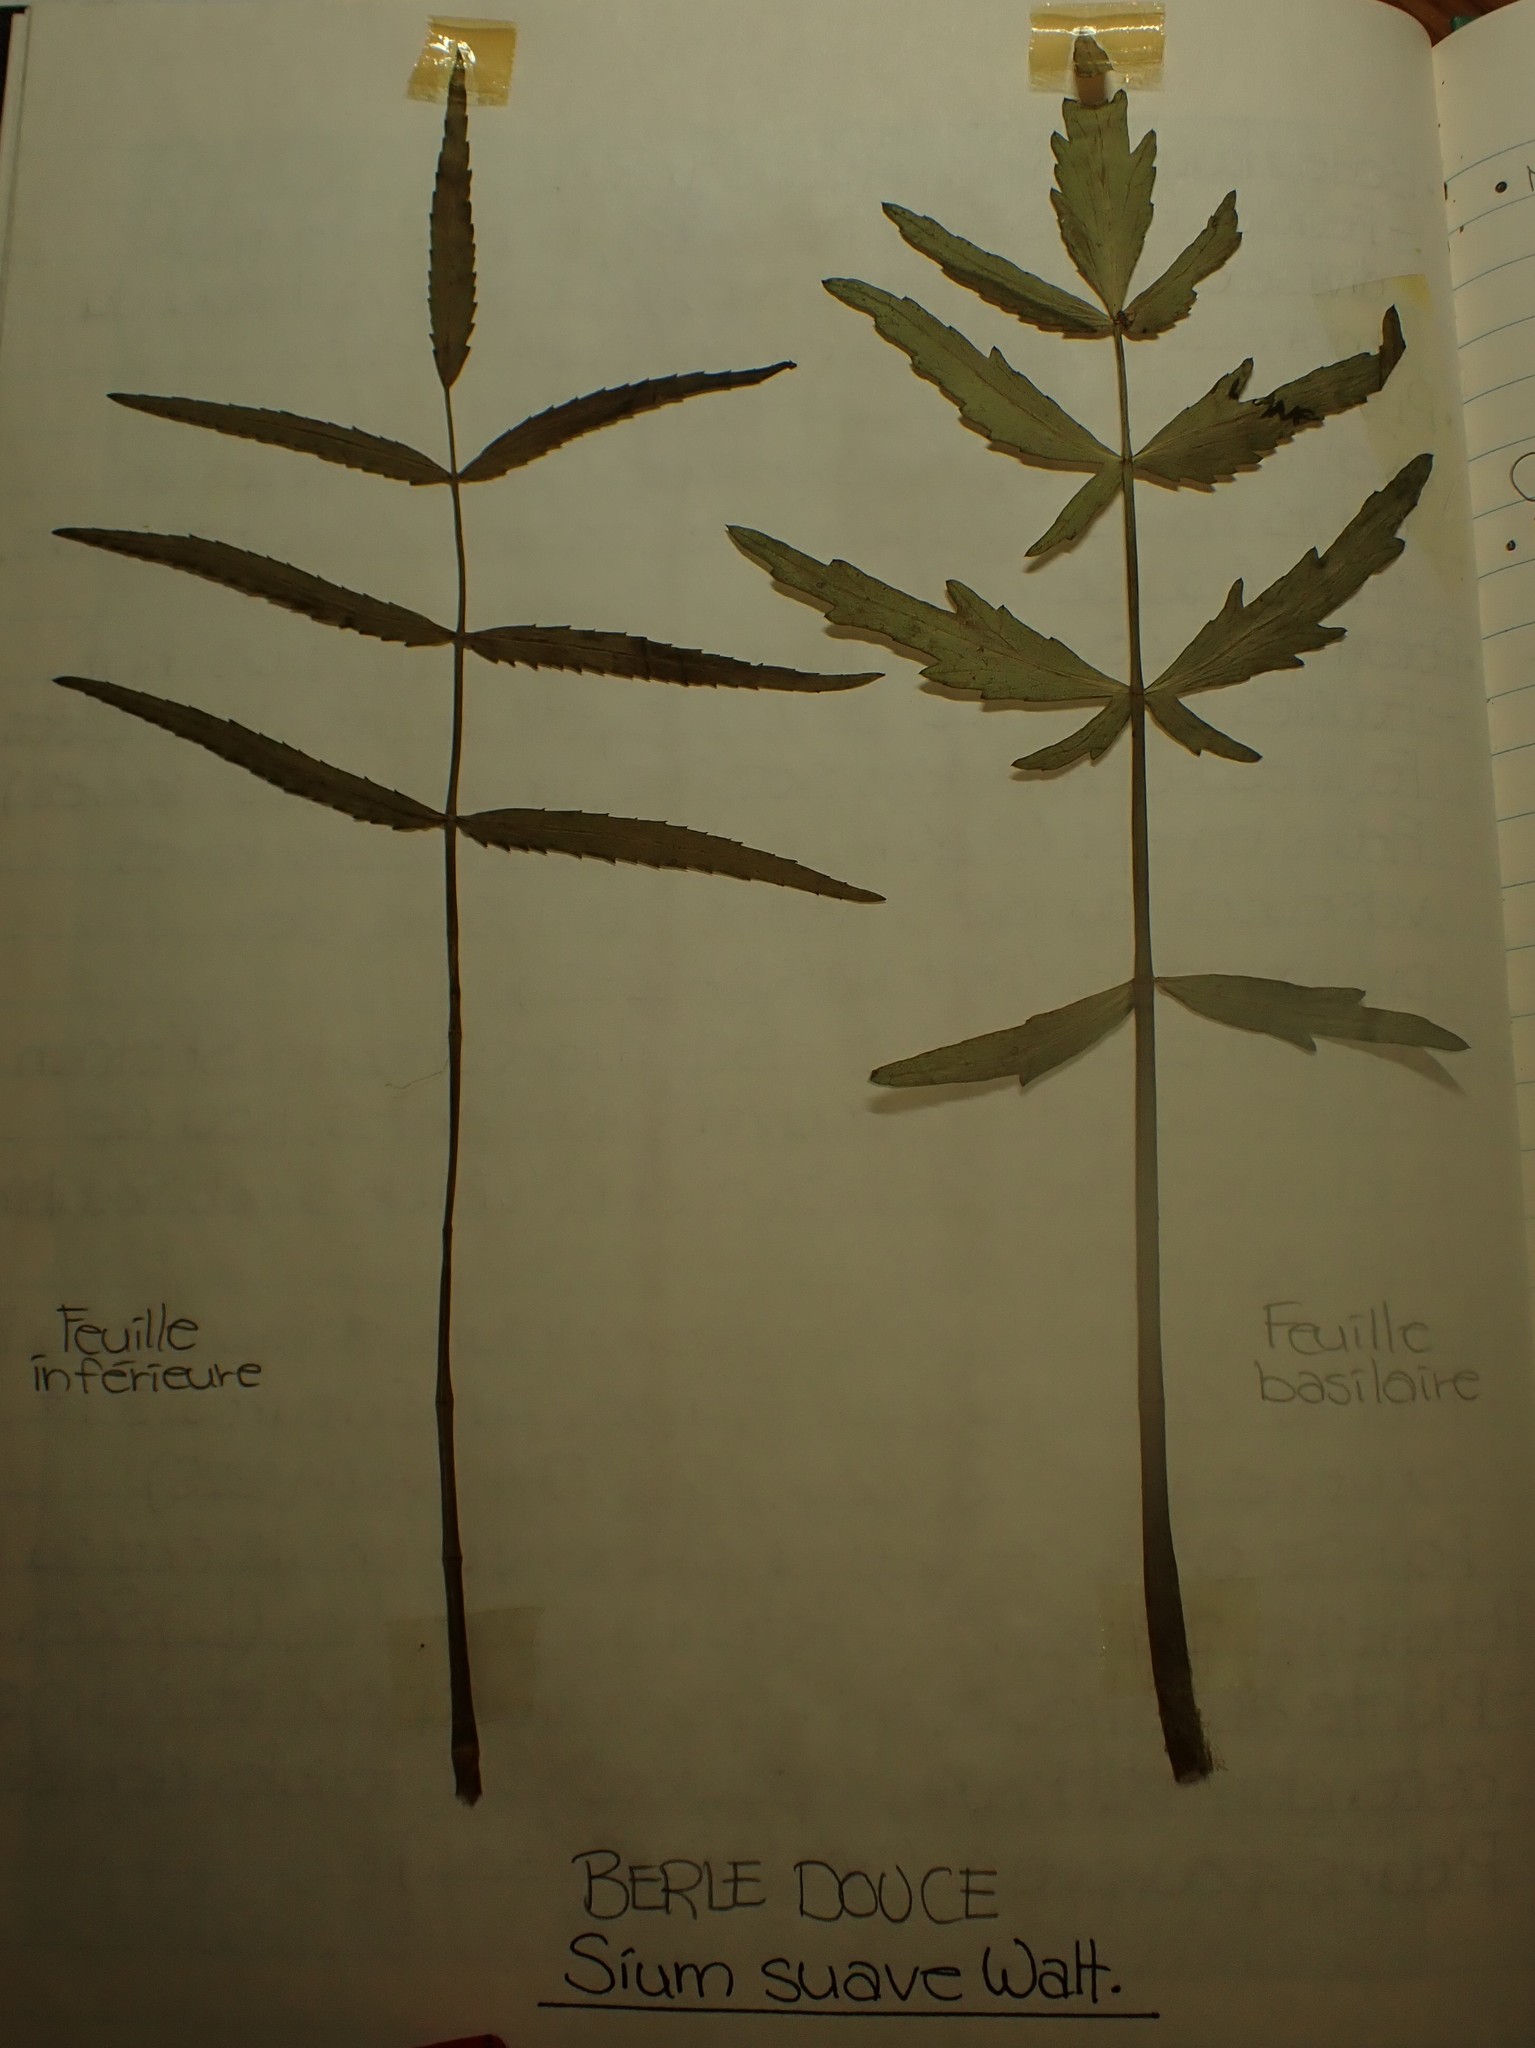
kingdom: Plantae
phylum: Tracheophyta
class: Magnoliopsida
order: Apiales
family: Apiaceae
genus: Sium
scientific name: Sium suave
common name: Hemlock water-parsnip
